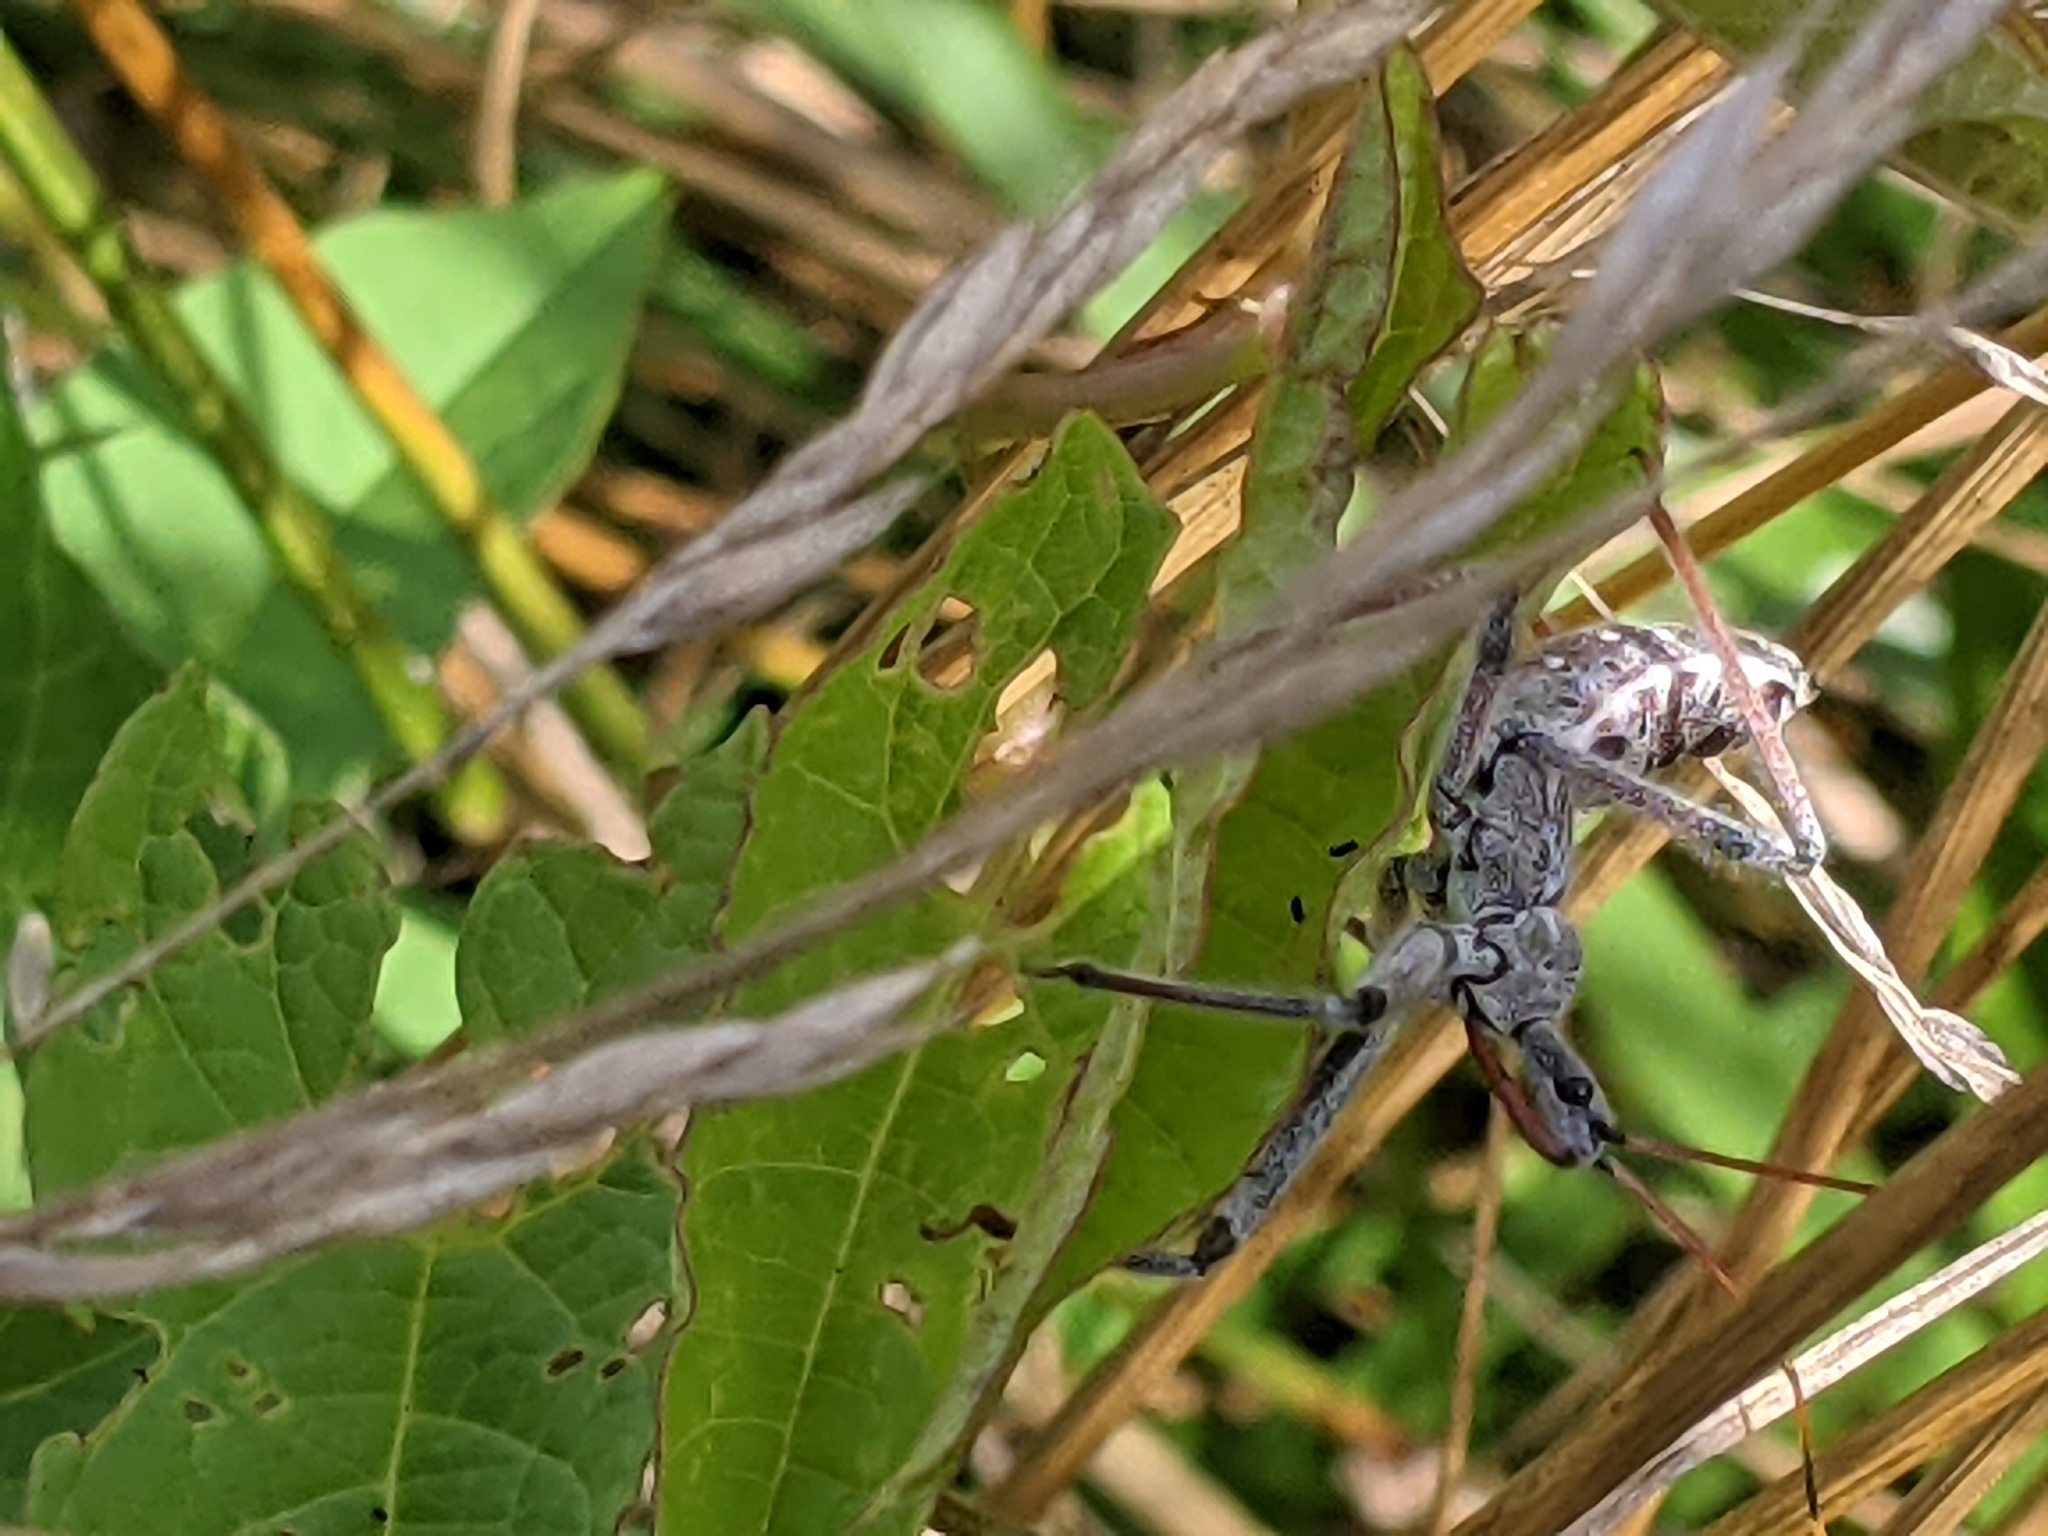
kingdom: Animalia
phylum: Arthropoda
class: Insecta
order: Hemiptera
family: Reduviidae
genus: Arilus
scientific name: Arilus cristatus
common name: North american wheel bug
